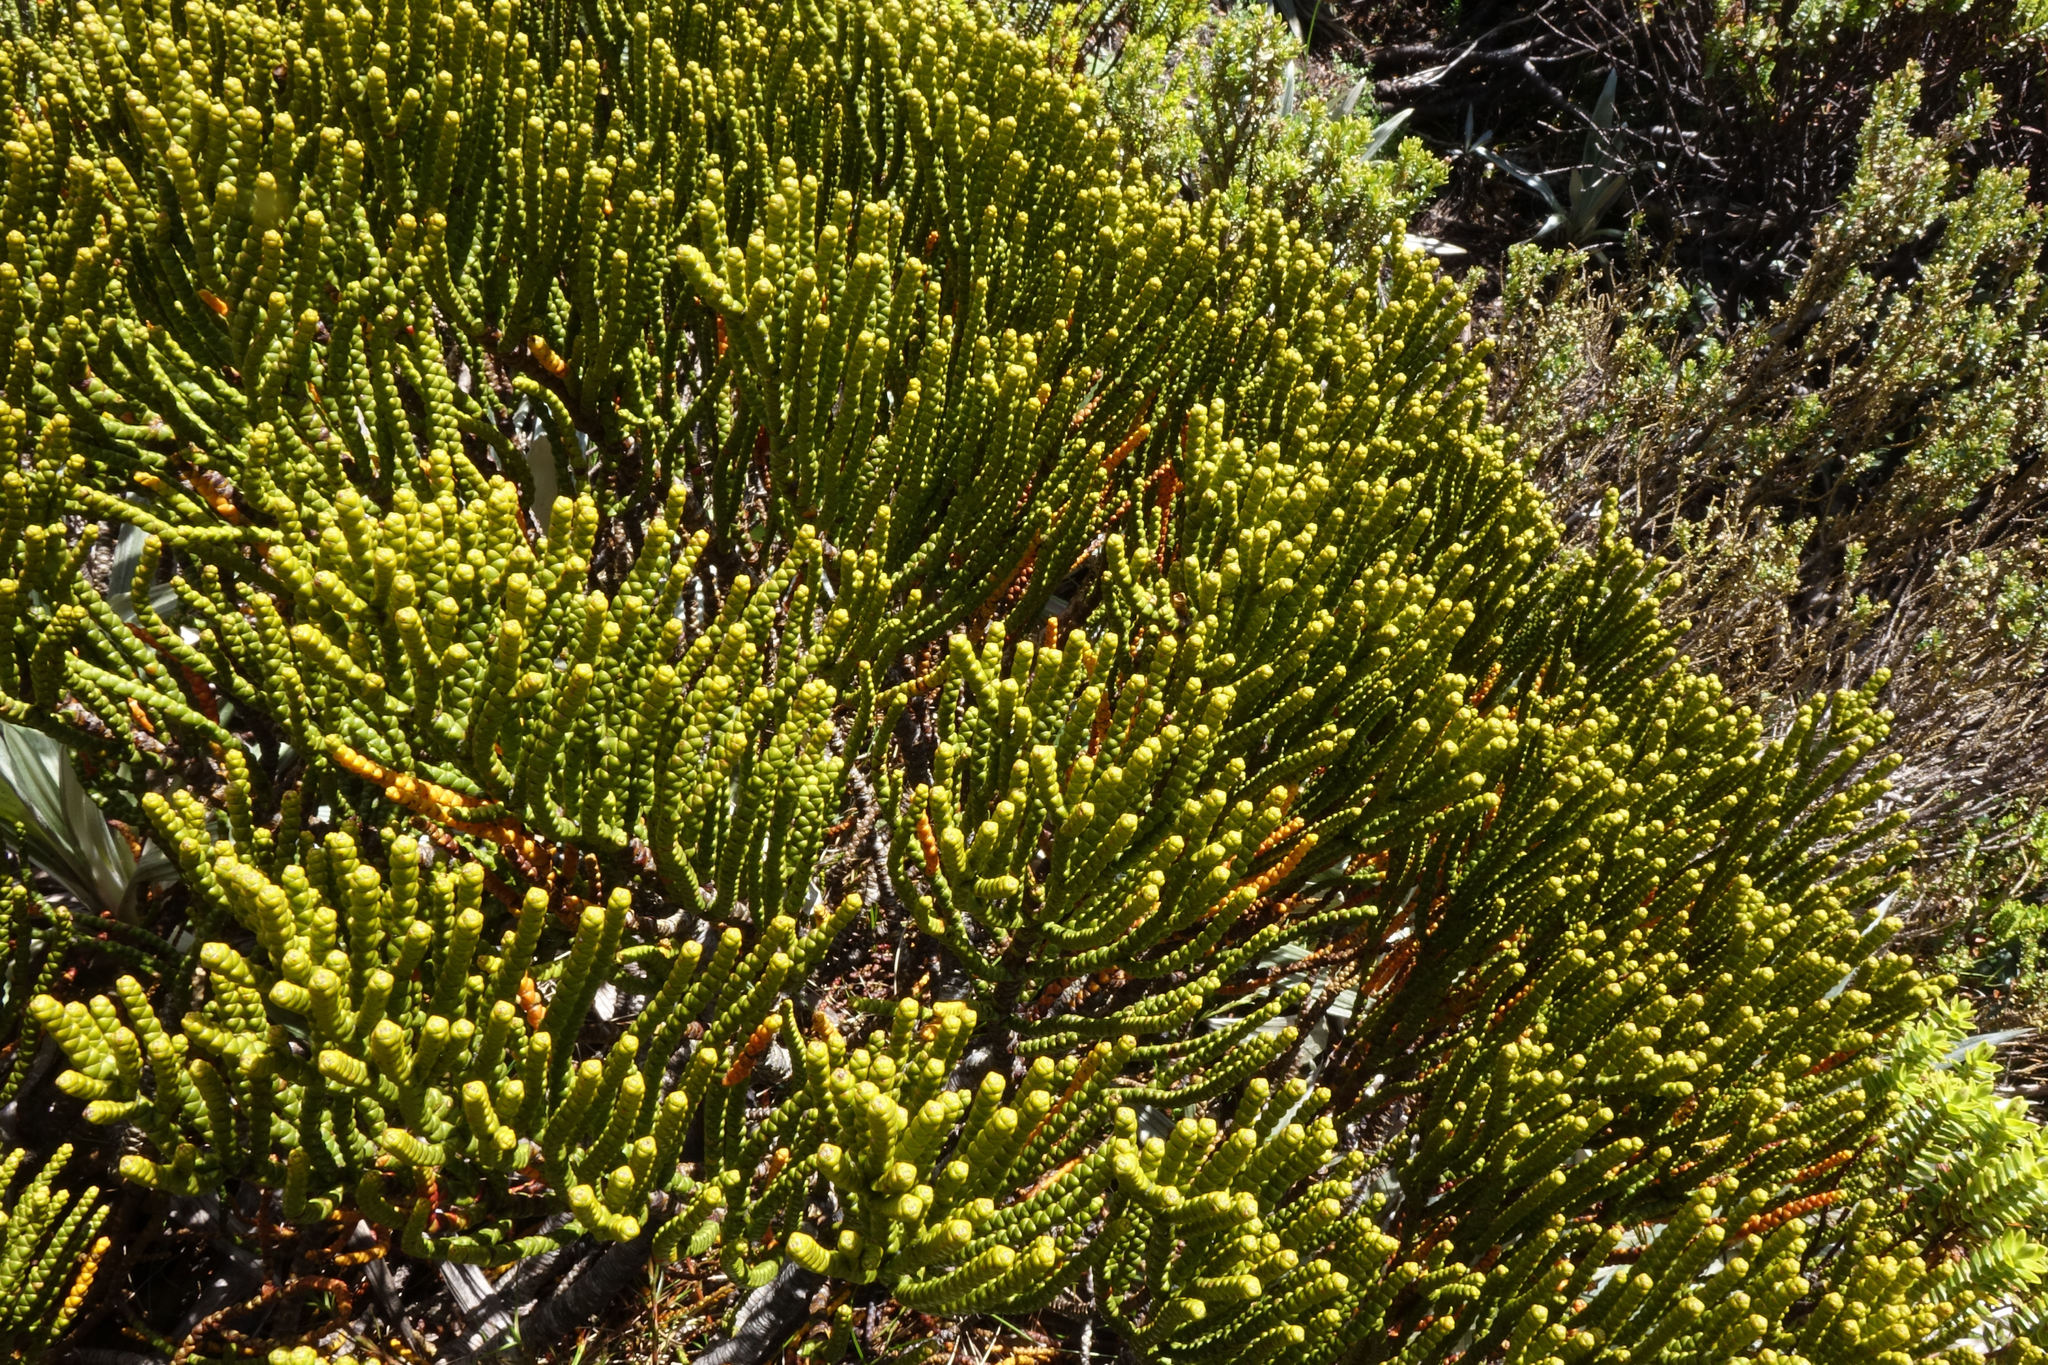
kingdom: Plantae
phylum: Tracheophyta
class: Magnoliopsida
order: Lamiales
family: Plantaginaceae
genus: Veronica
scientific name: Veronica hectorii
